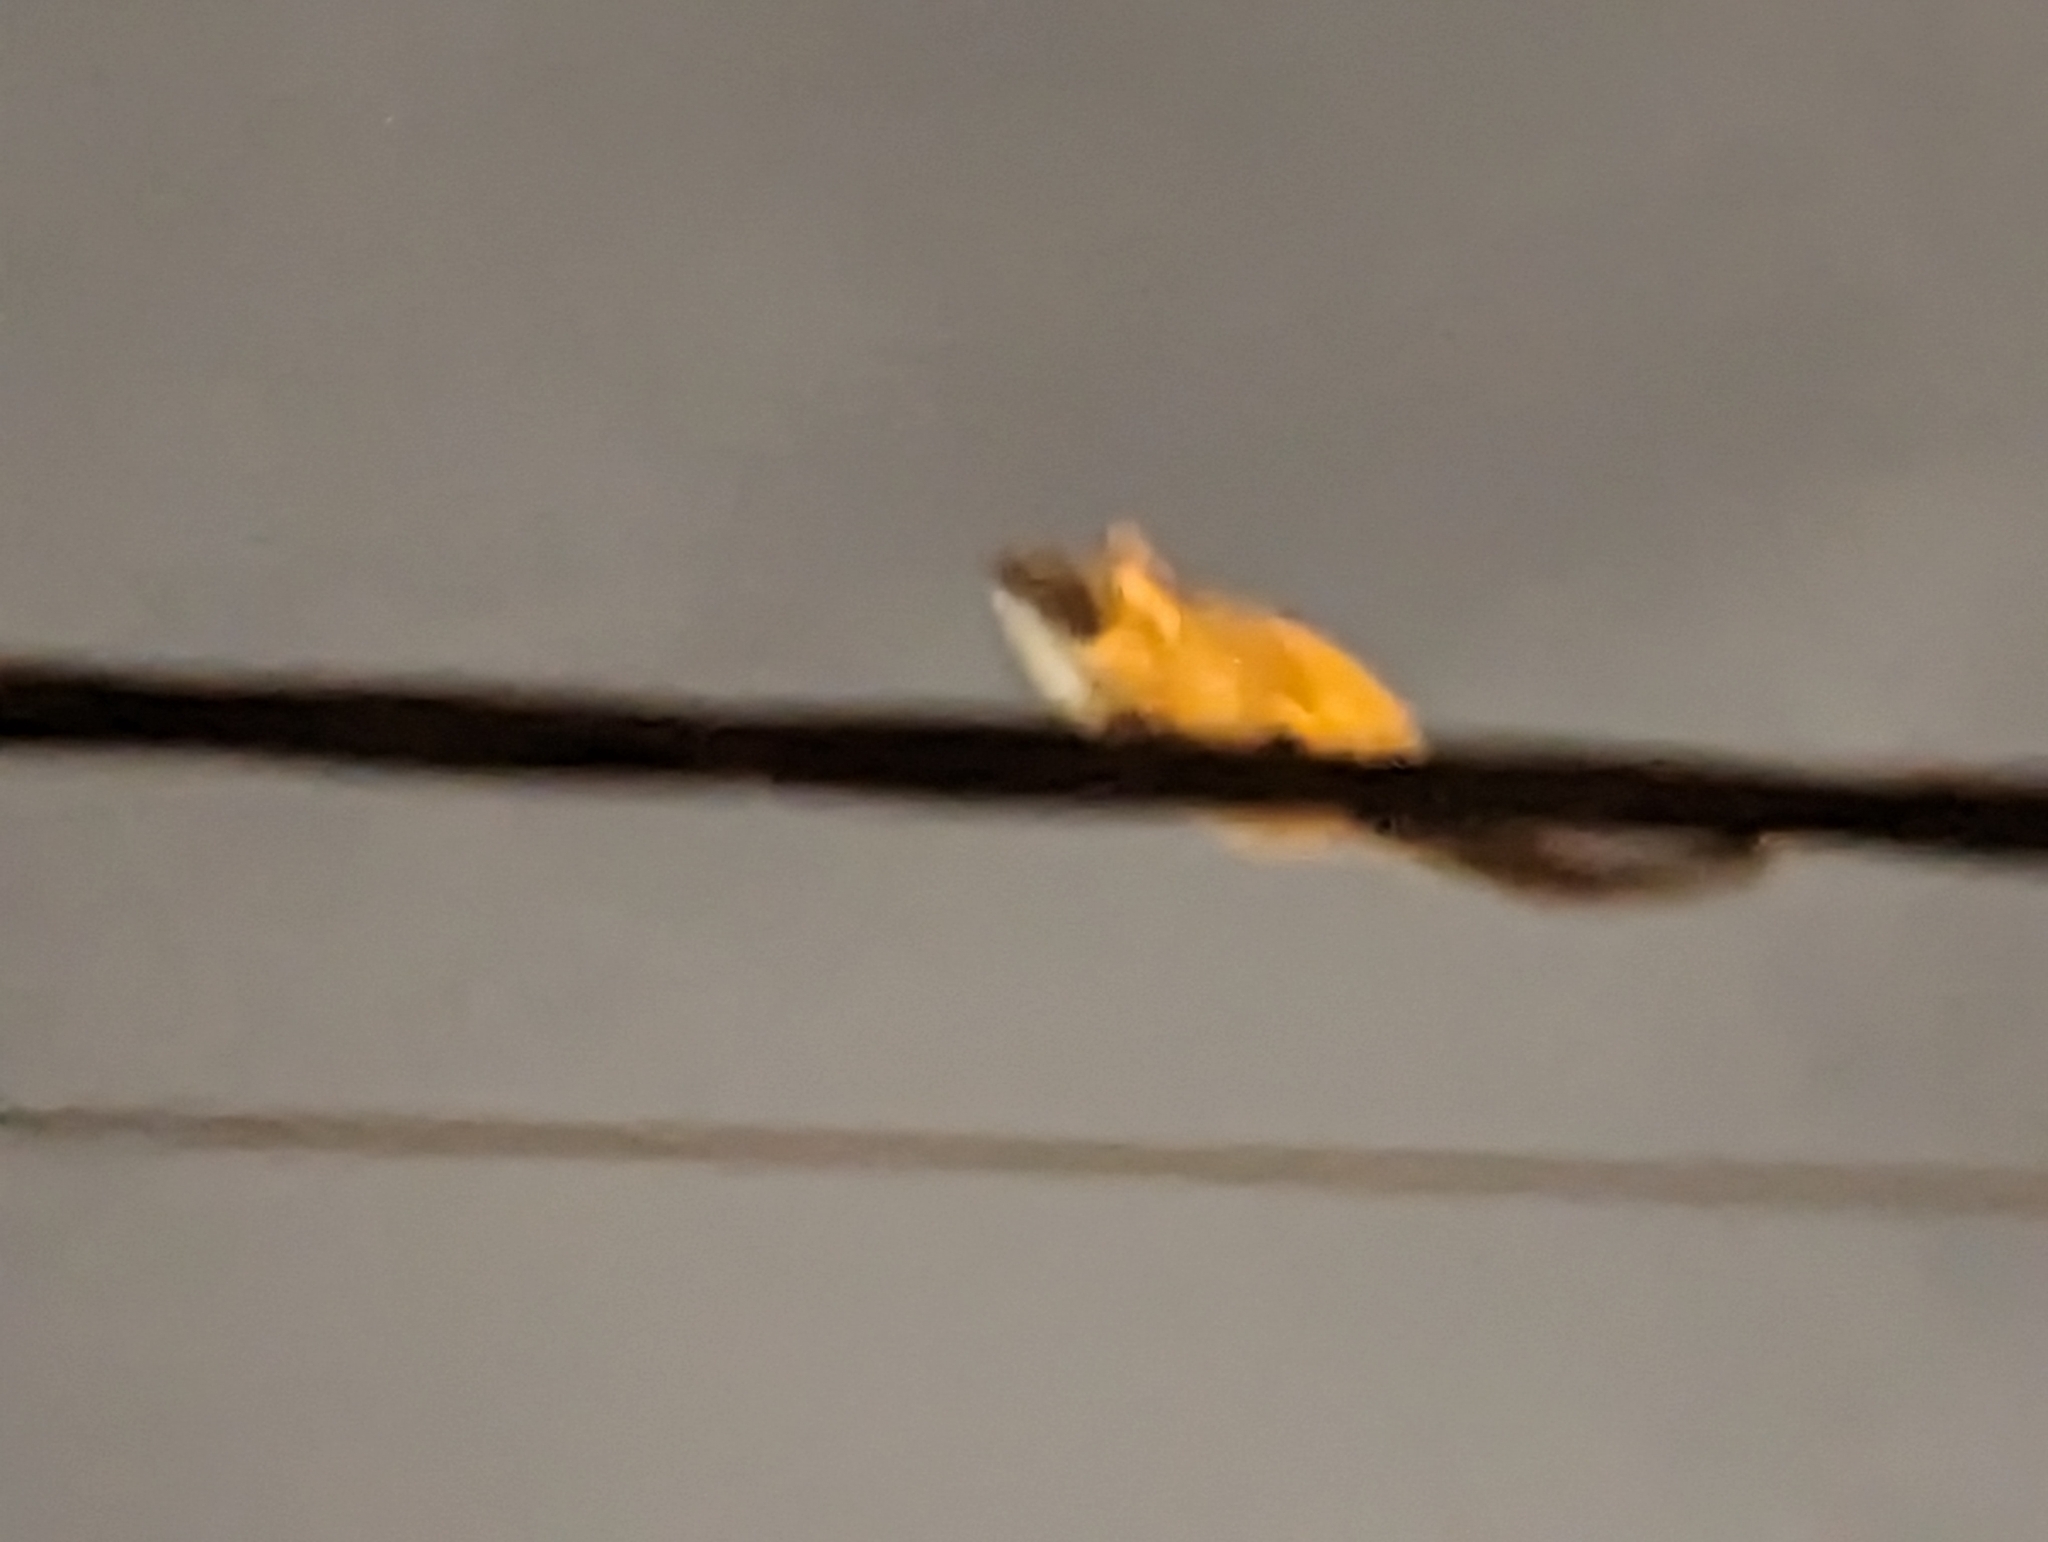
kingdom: Animalia
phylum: Chordata
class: Mammalia
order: Diprotodontia
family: Pseudocheiridae
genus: Pseudocheirus
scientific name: Pseudocheirus peregrinus
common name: Common ringtail possum
